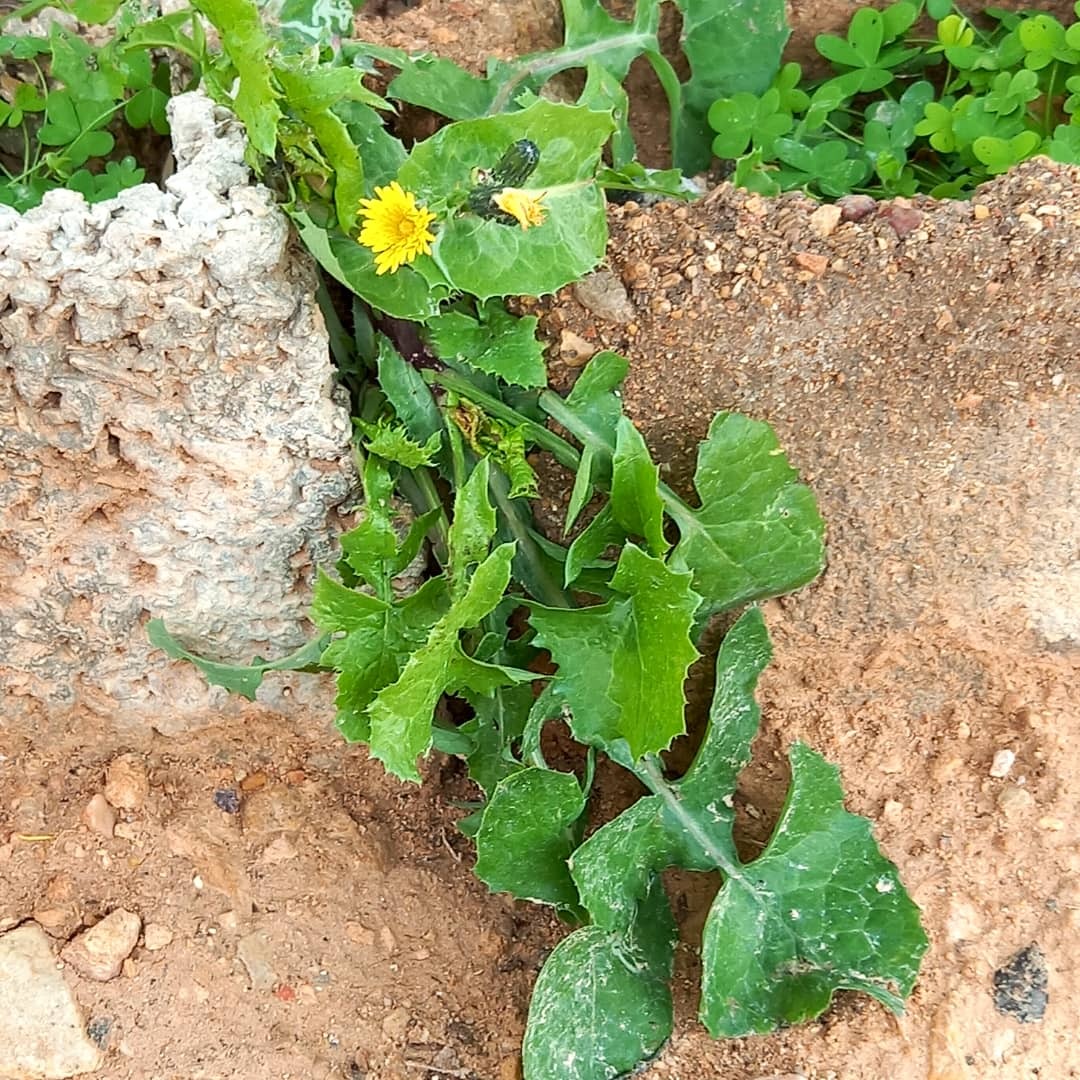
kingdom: Plantae
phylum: Tracheophyta
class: Magnoliopsida
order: Asterales
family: Asteraceae
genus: Sonchus
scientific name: Sonchus oleraceus
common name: Common sowthistle
